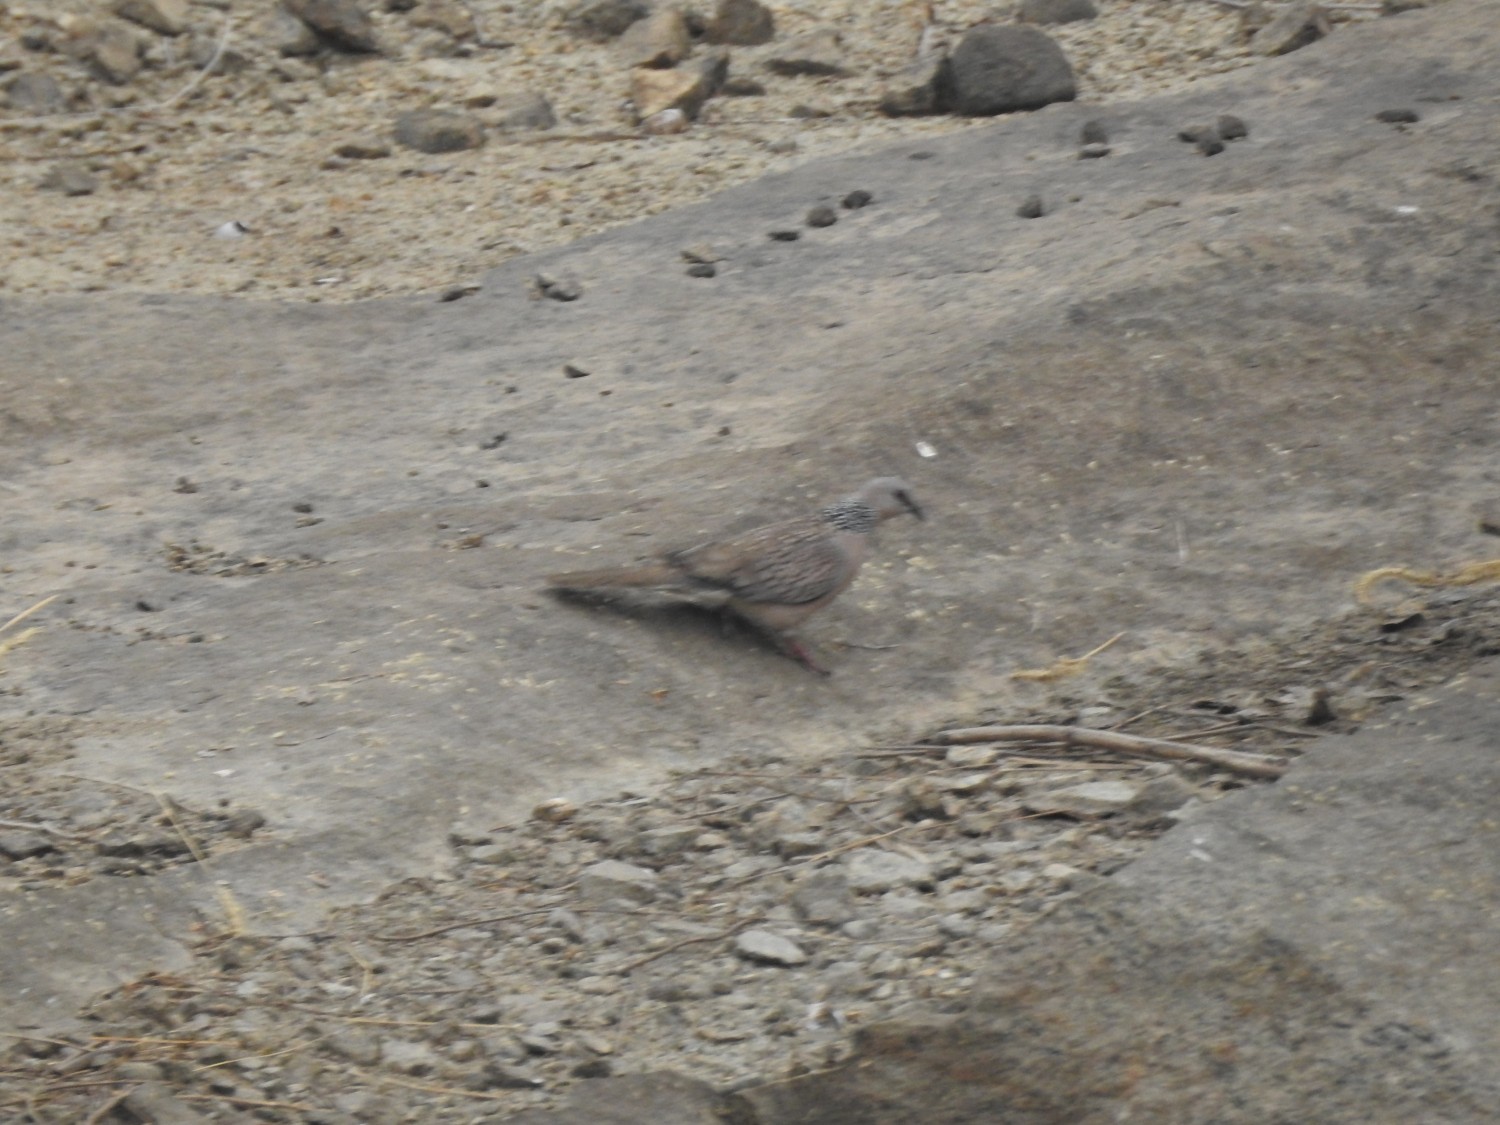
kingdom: Animalia
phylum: Chordata
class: Aves
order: Columbiformes
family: Columbidae
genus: Spilopelia
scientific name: Spilopelia chinensis
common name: Spotted dove
